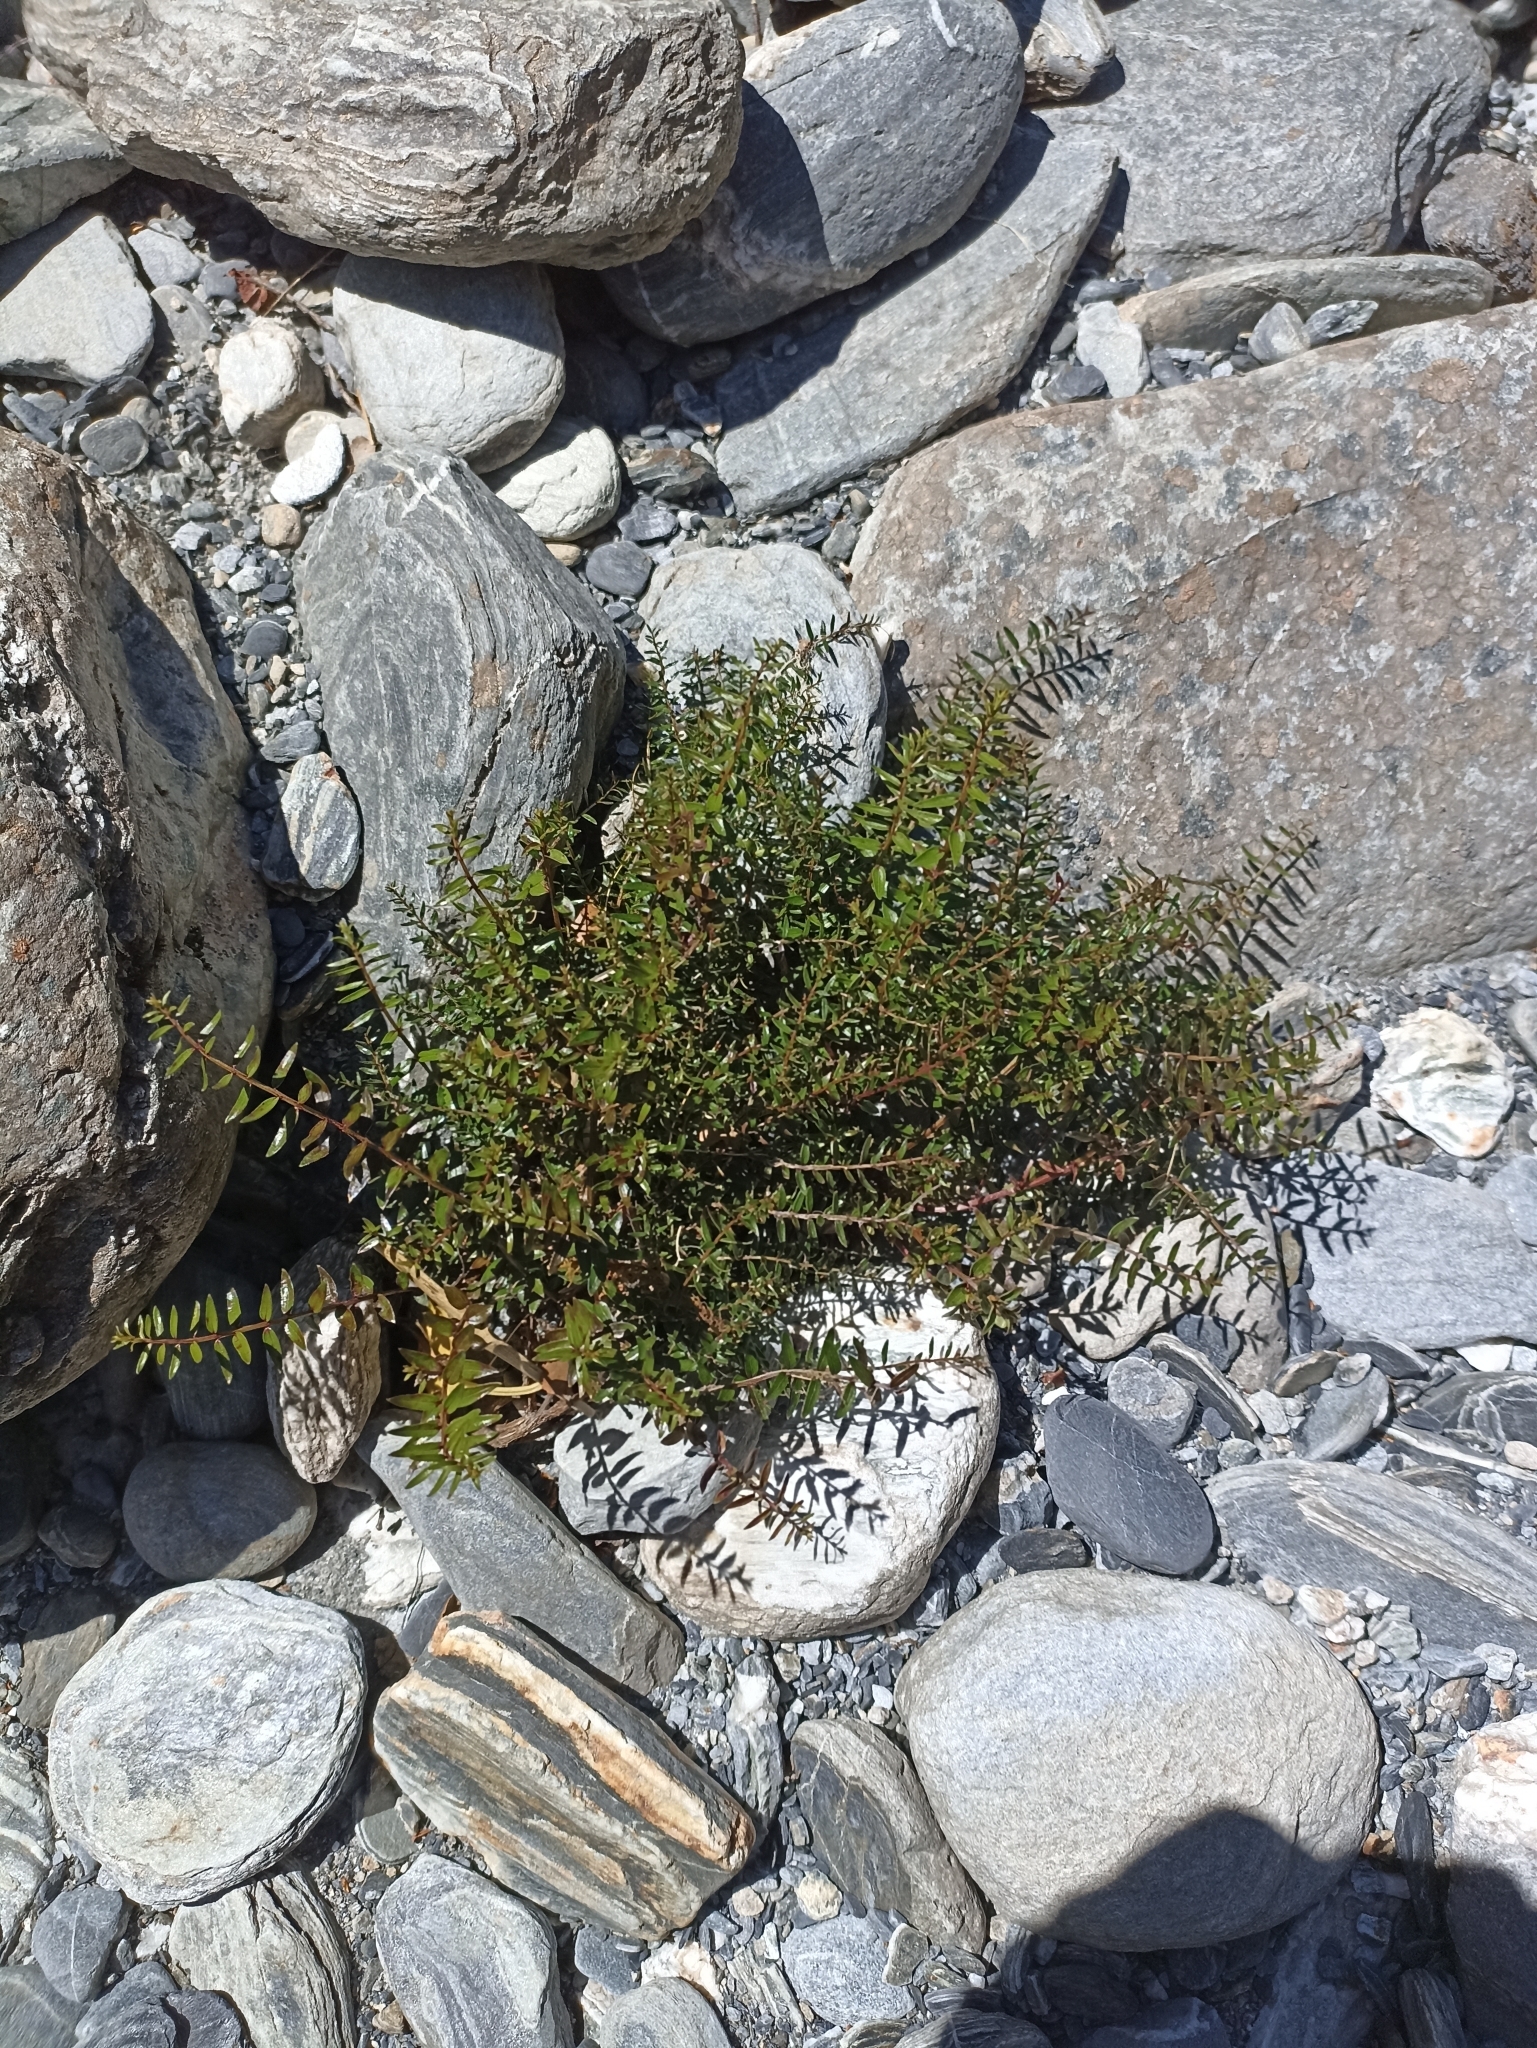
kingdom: Plantae
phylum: Tracheophyta
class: Magnoliopsida
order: Cucurbitales
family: Coriariaceae
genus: Coriaria
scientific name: Coriaria plumosa
